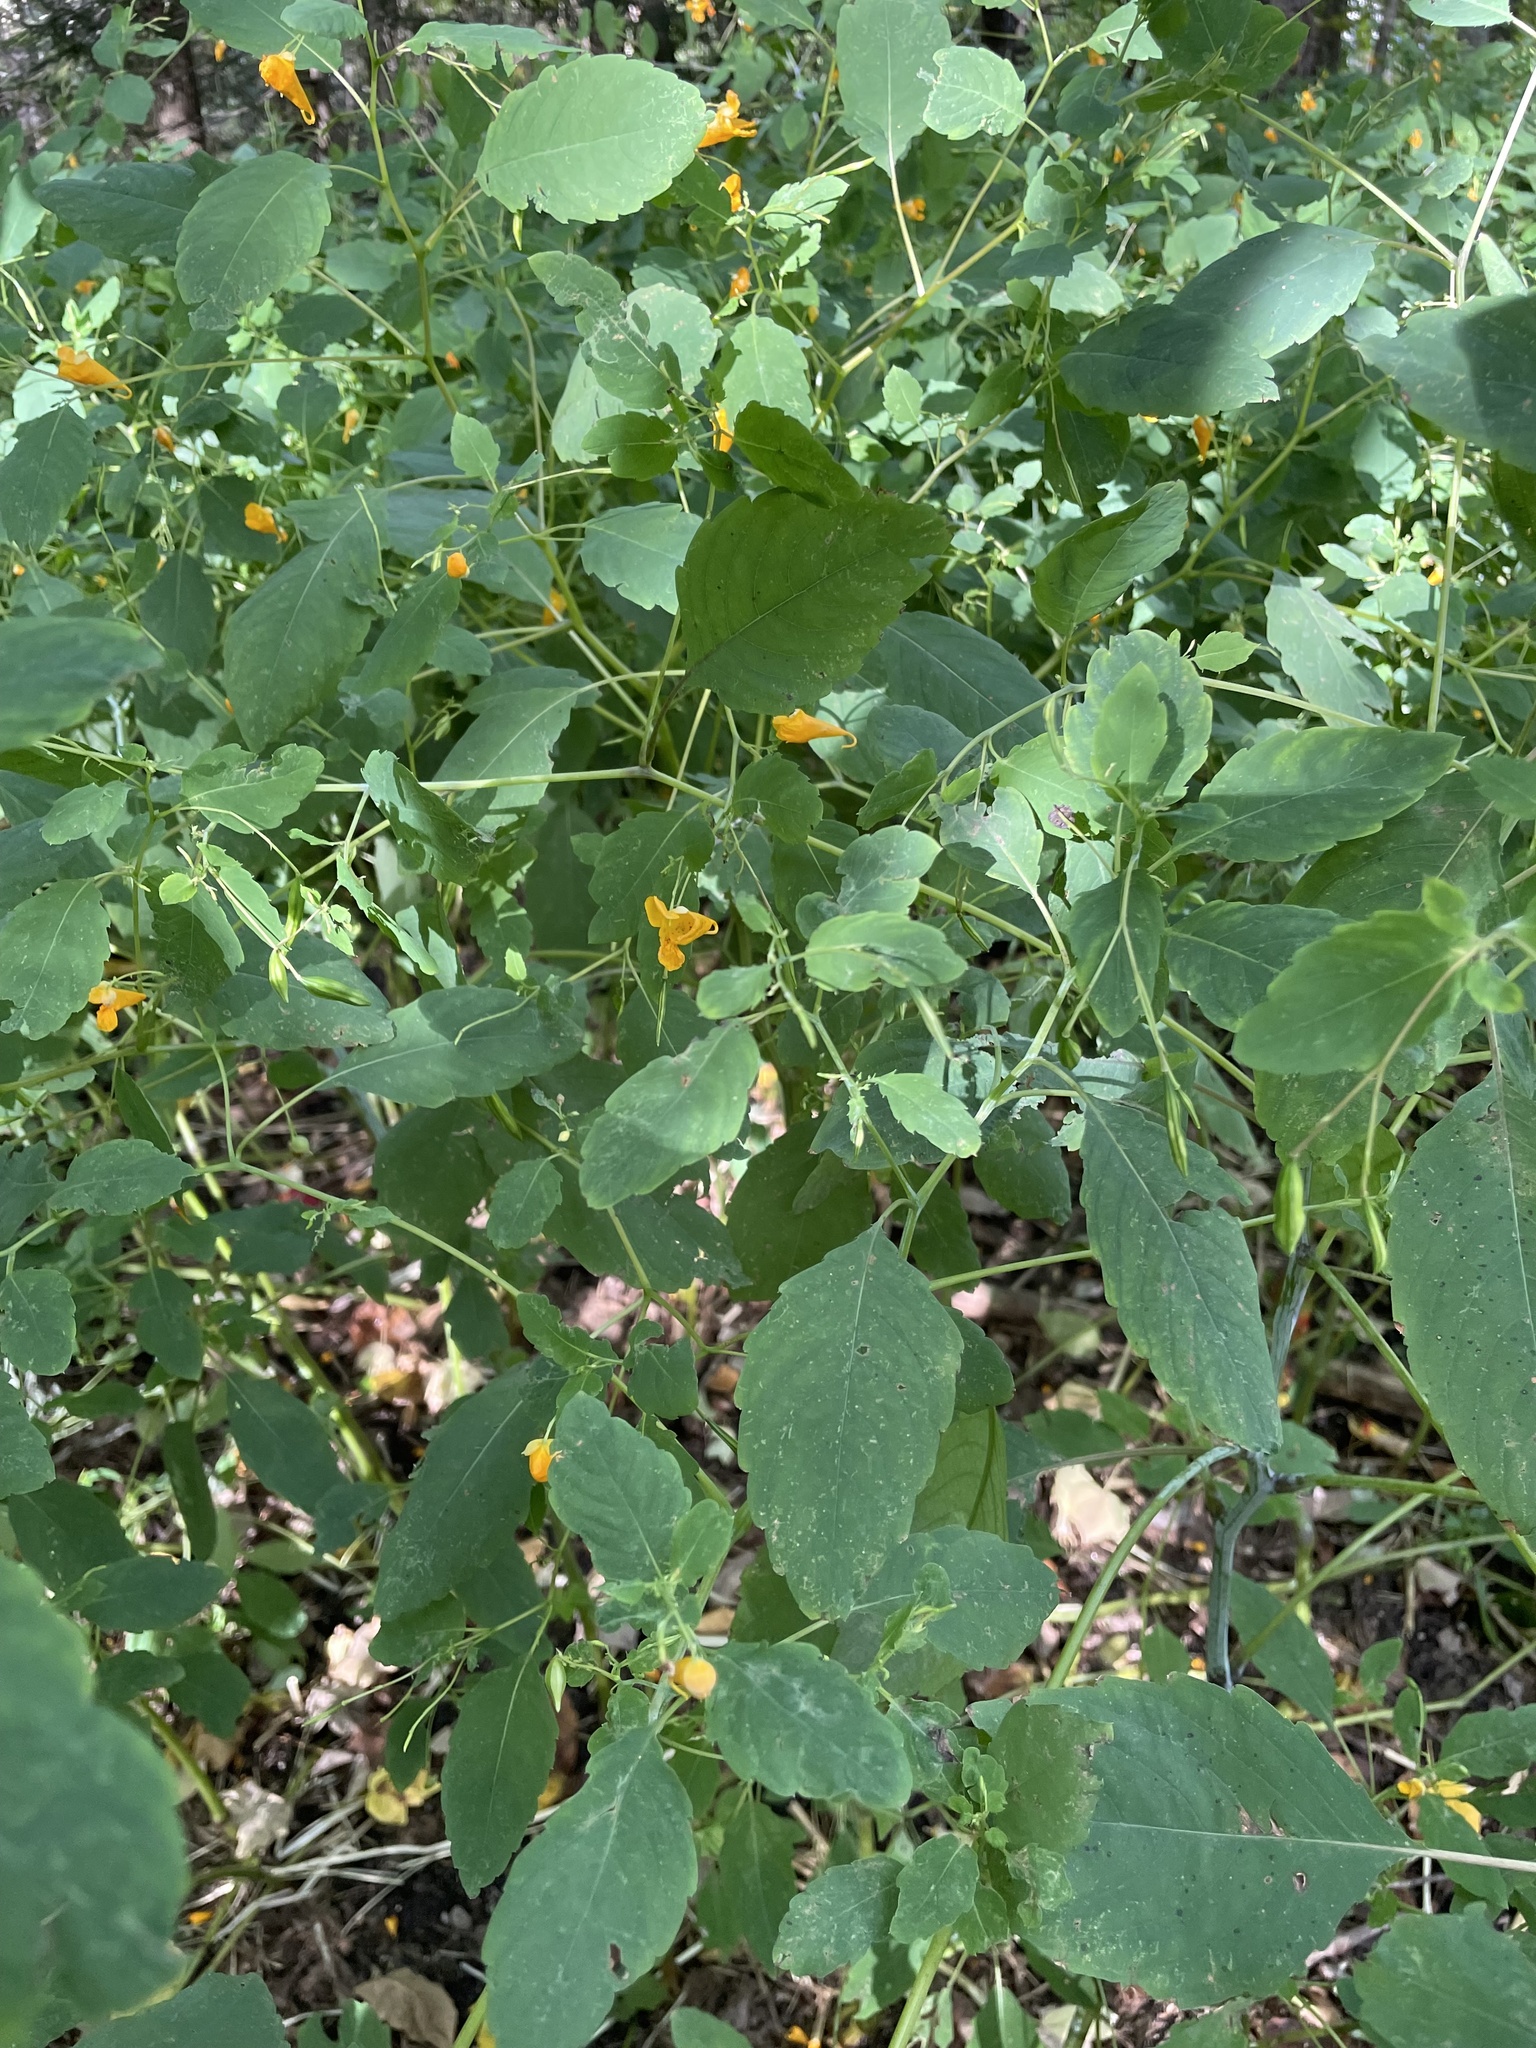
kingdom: Plantae
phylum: Tracheophyta
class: Magnoliopsida
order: Ericales
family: Balsaminaceae
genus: Impatiens
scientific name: Impatiens capensis
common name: Orange balsam
